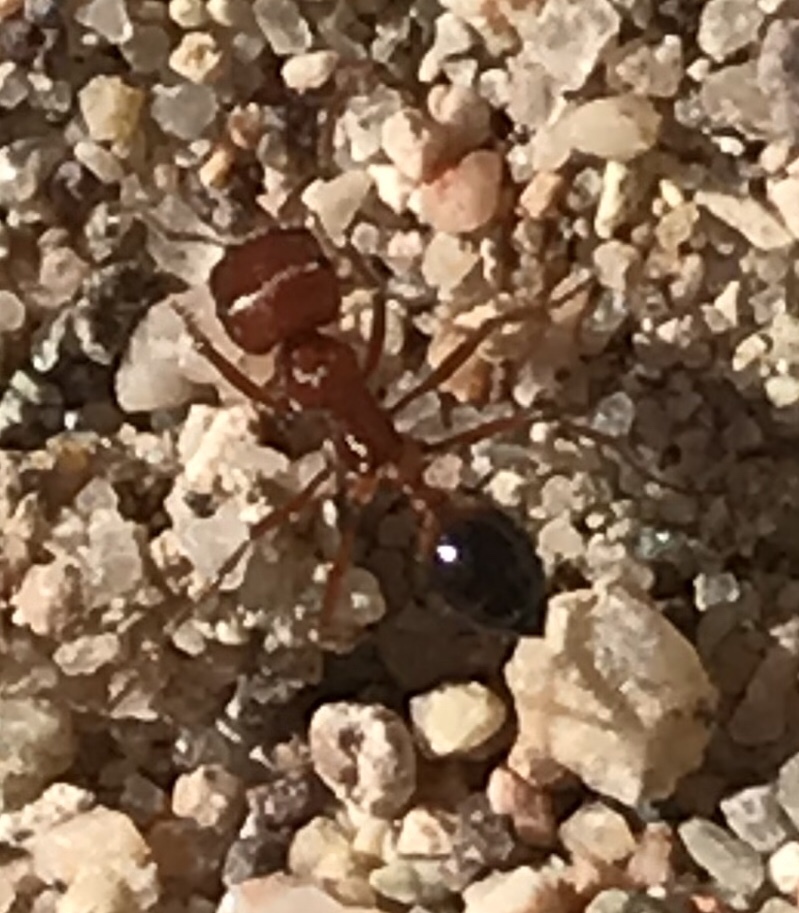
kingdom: Animalia
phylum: Arthropoda
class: Insecta
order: Hymenoptera
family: Formicidae
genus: Pogonomyrmex
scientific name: Pogonomyrmex californicus
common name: California harvester ant
